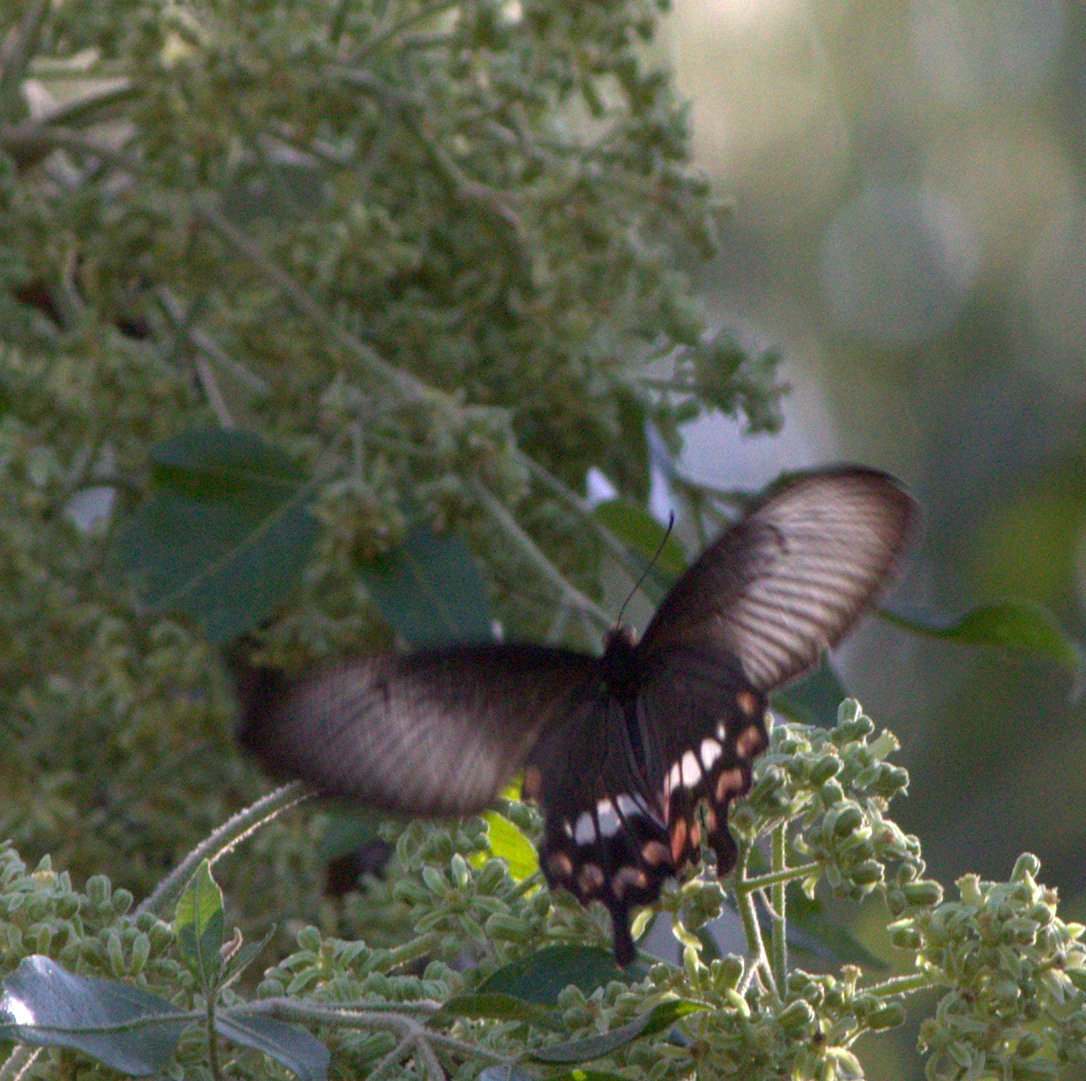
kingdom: Animalia
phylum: Arthropoda
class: Insecta
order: Lepidoptera
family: Papilionidae
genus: Pachliopta
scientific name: Pachliopta aristolochiae
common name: Common rose
